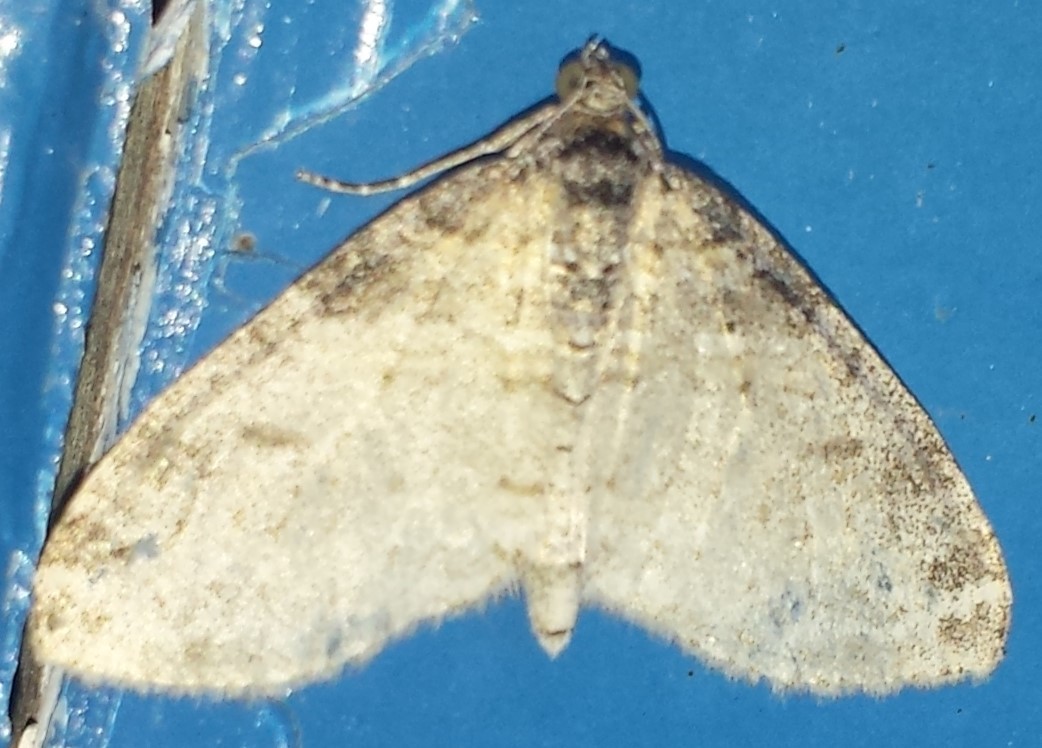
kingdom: Animalia
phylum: Arthropoda
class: Insecta
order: Lepidoptera
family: Geometridae
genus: Lobophora
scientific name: Lobophora nivigerata
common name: Powdered bigwing
